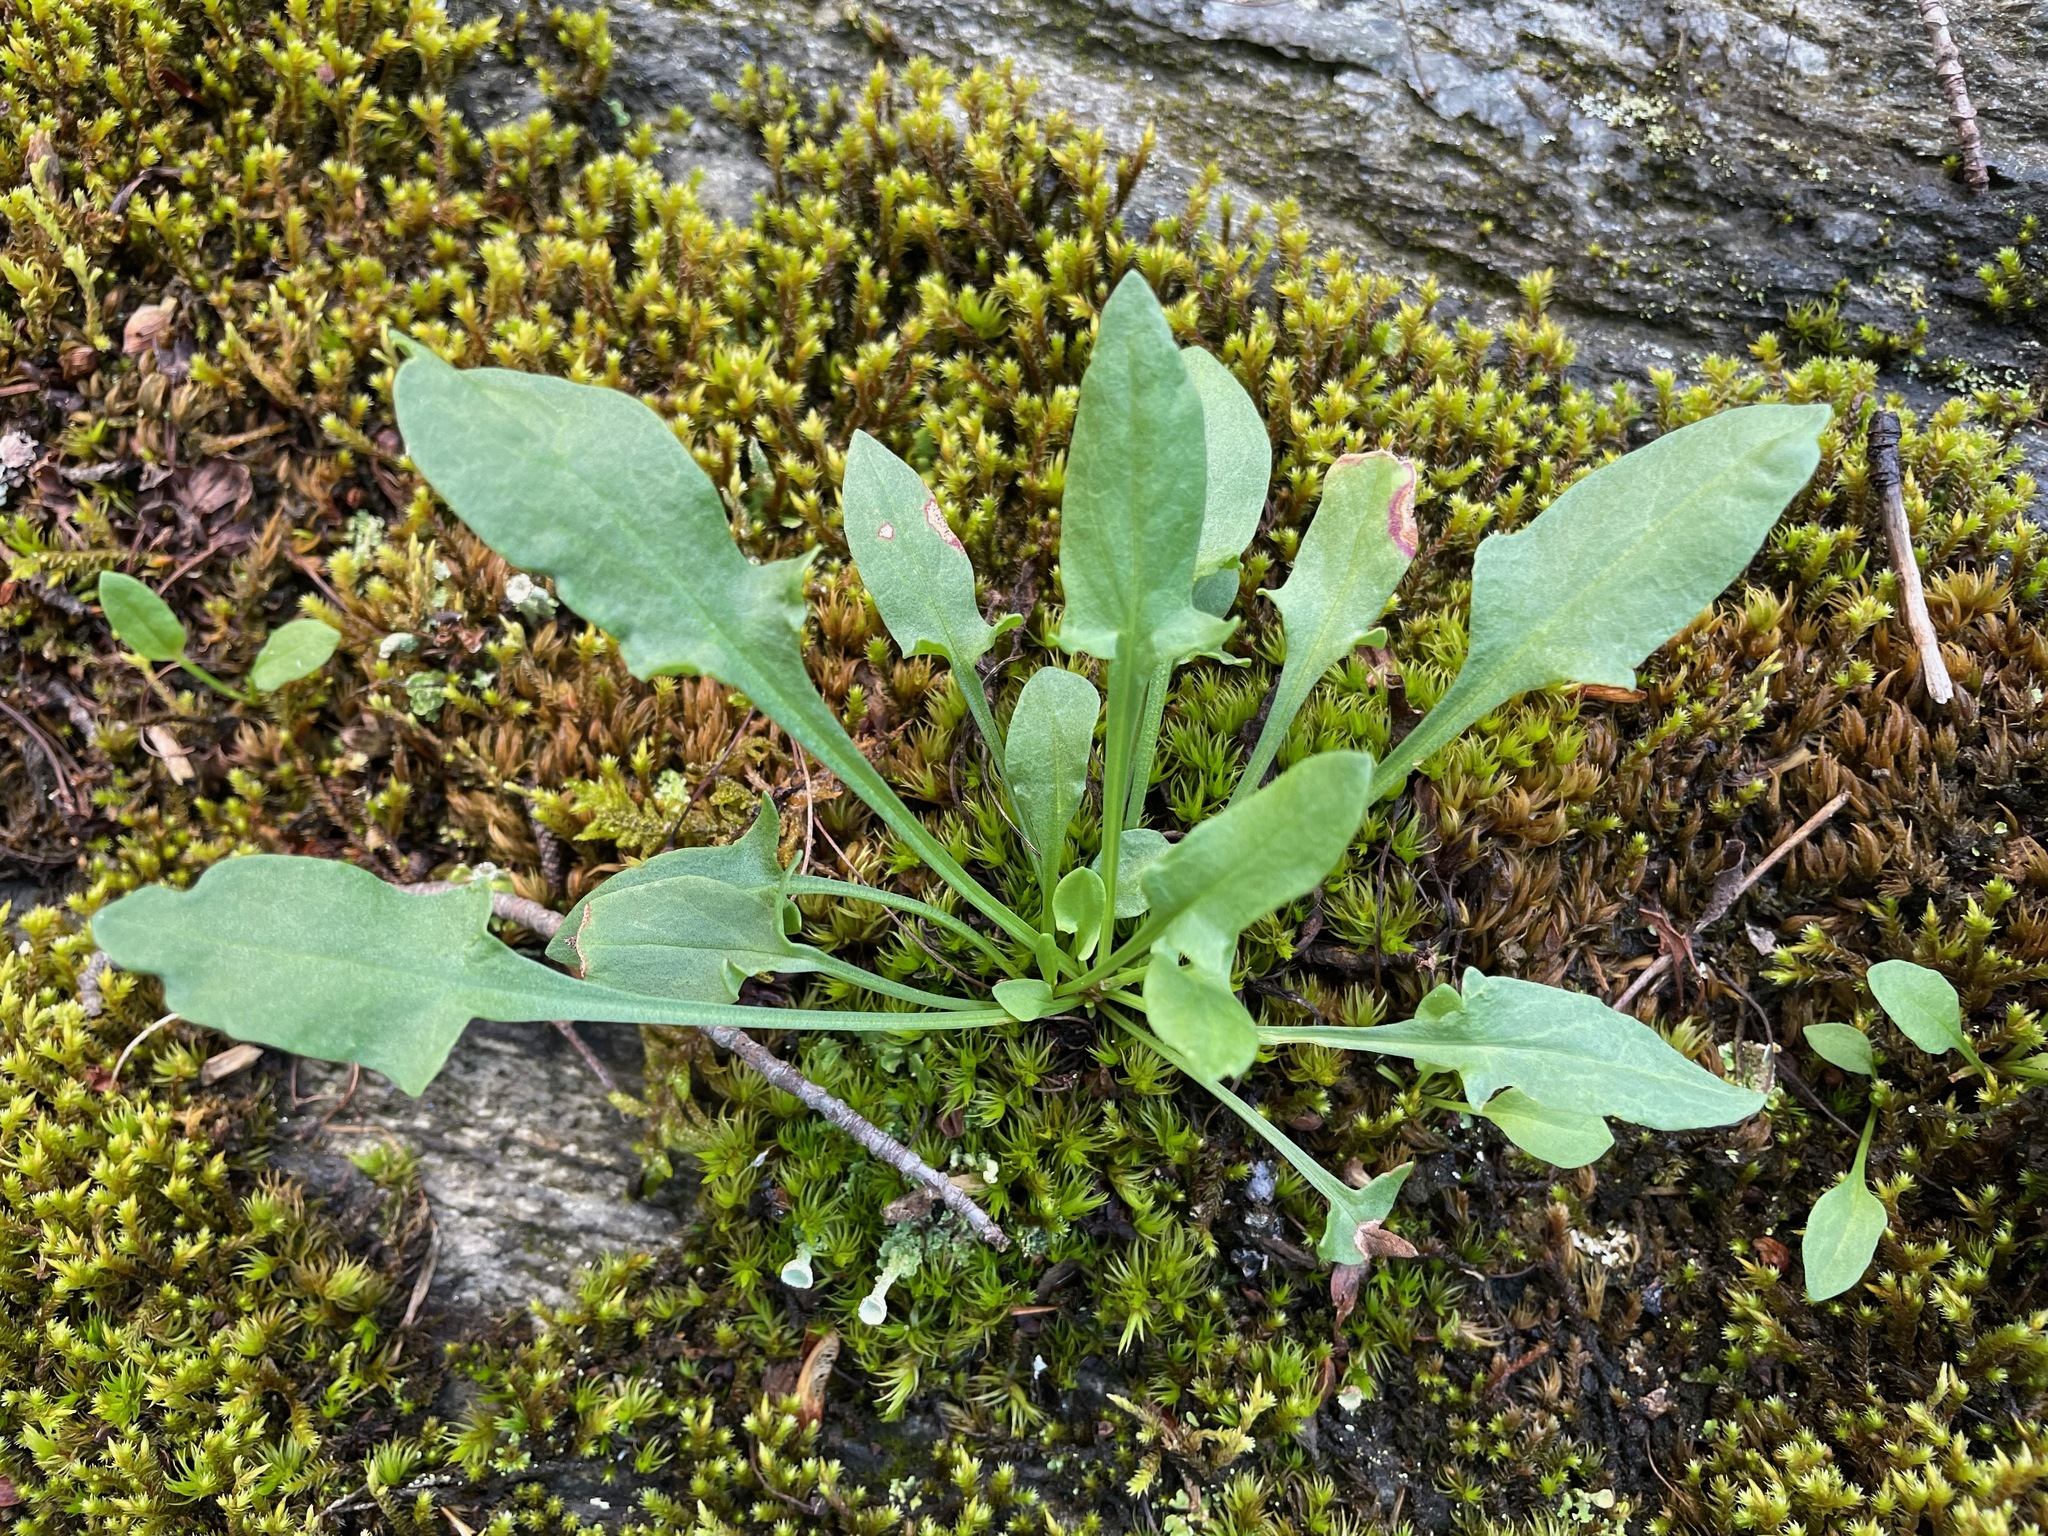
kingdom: Plantae
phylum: Tracheophyta
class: Magnoliopsida
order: Caryophyllales
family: Polygonaceae
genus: Rumex
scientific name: Rumex acetosella
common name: Common sheep sorrel
